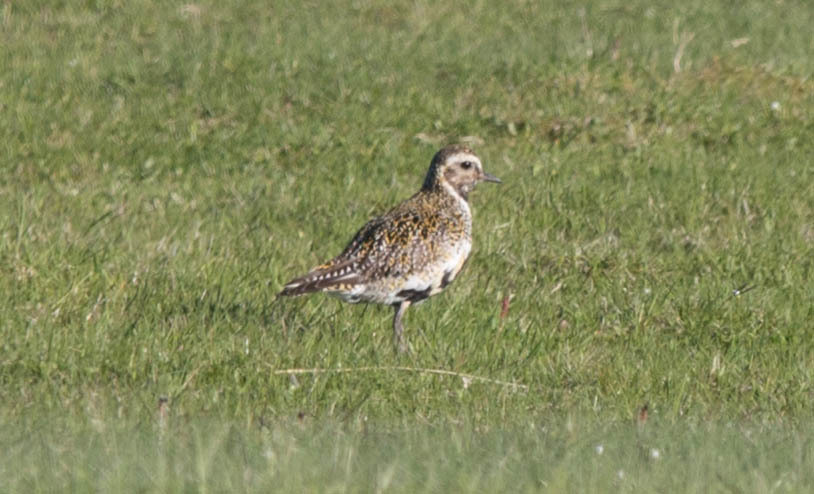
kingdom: Animalia
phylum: Chordata
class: Aves
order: Charadriiformes
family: Charadriidae
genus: Pluvialis
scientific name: Pluvialis apricaria
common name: European golden plover
